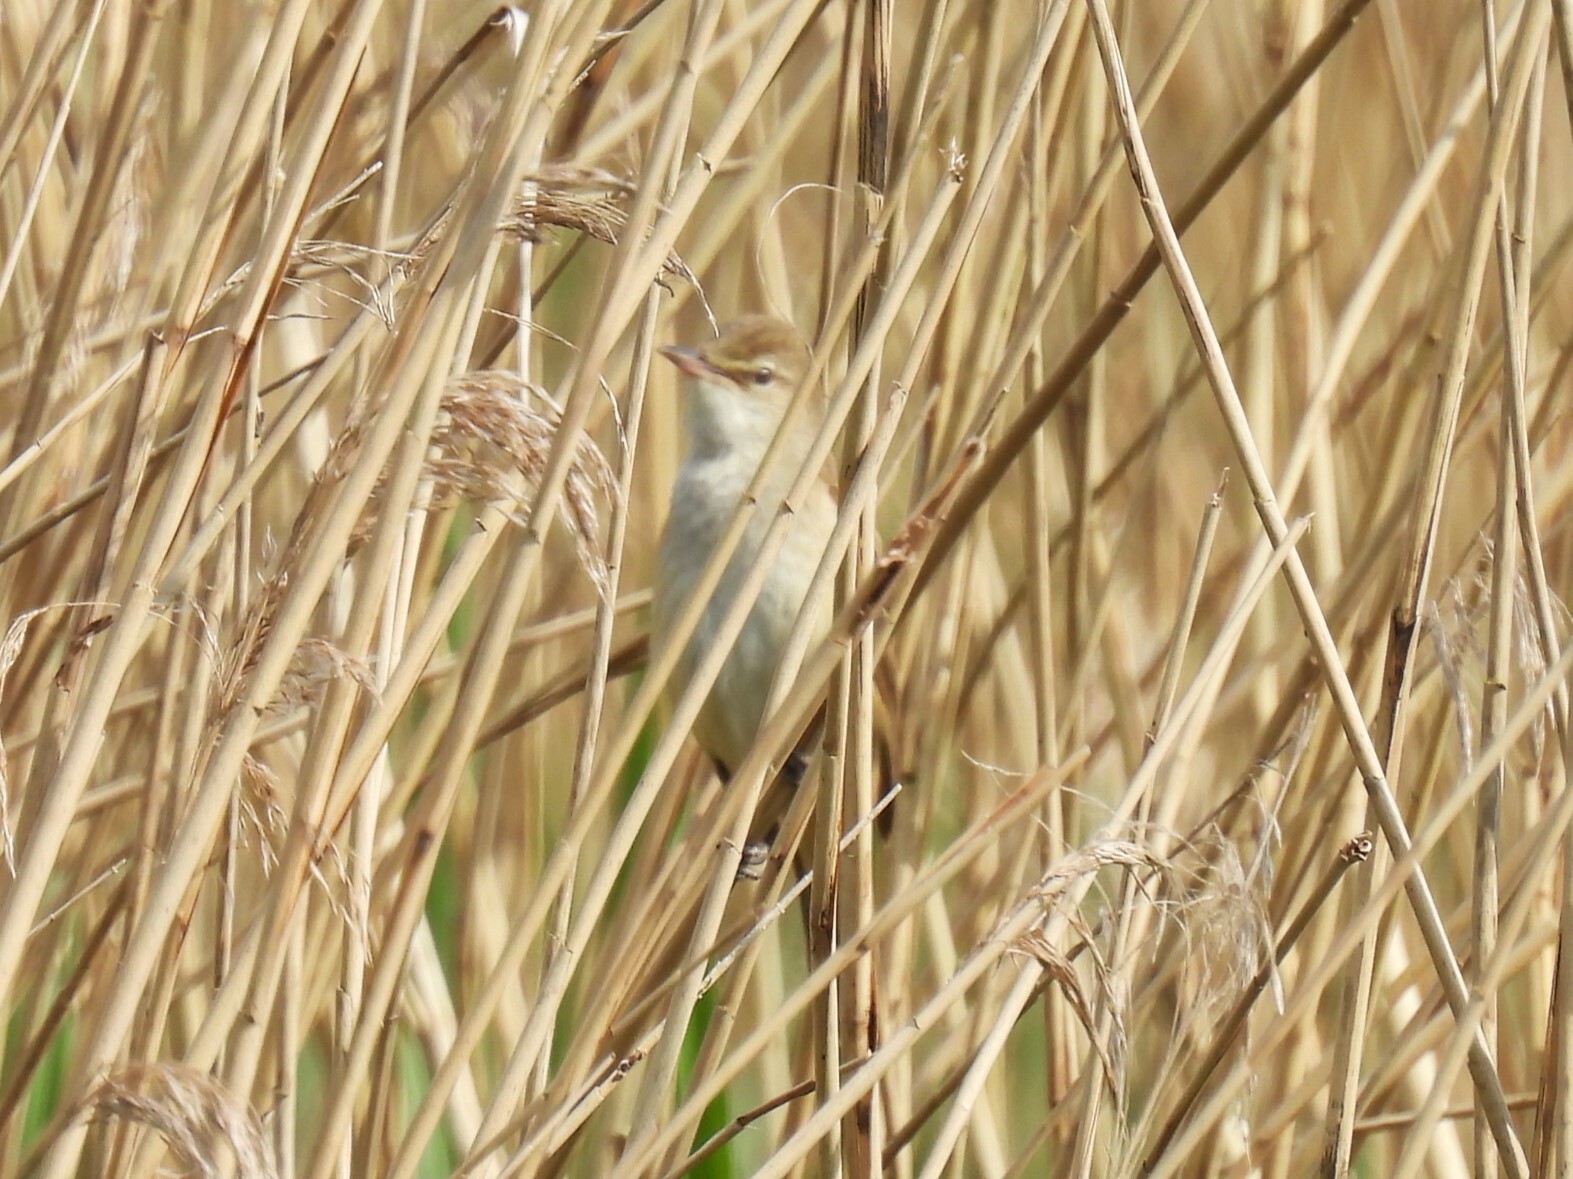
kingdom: Animalia
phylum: Chordata
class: Aves
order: Passeriformes
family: Acrocephalidae
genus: Acrocephalus
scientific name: Acrocephalus arundinaceus
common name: Great reed warbler
